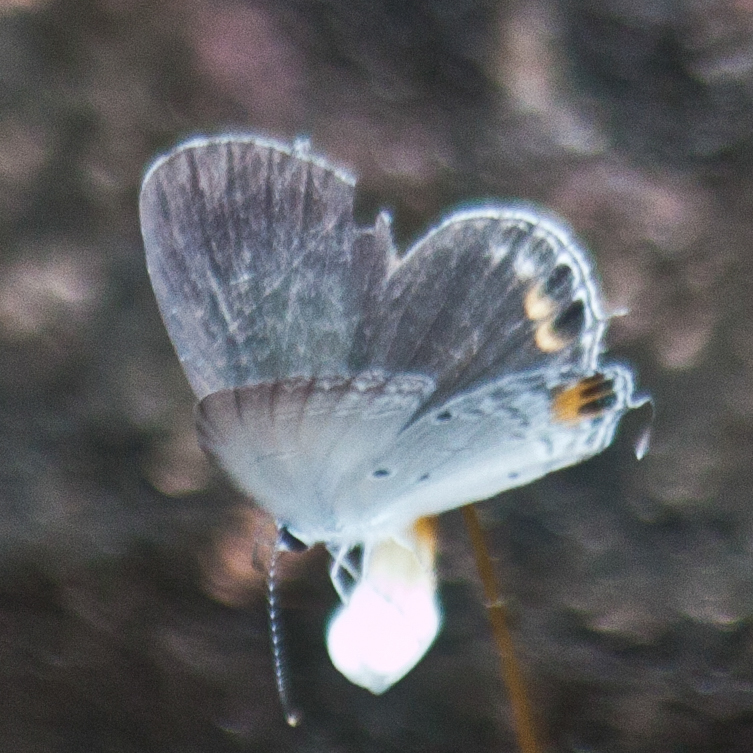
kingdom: Animalia
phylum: Arthropoda
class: Insecta
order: Lepidoptera
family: Lycaenidae
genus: Everes
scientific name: Everes lacturnus
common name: Orange-tipped pea-blue
